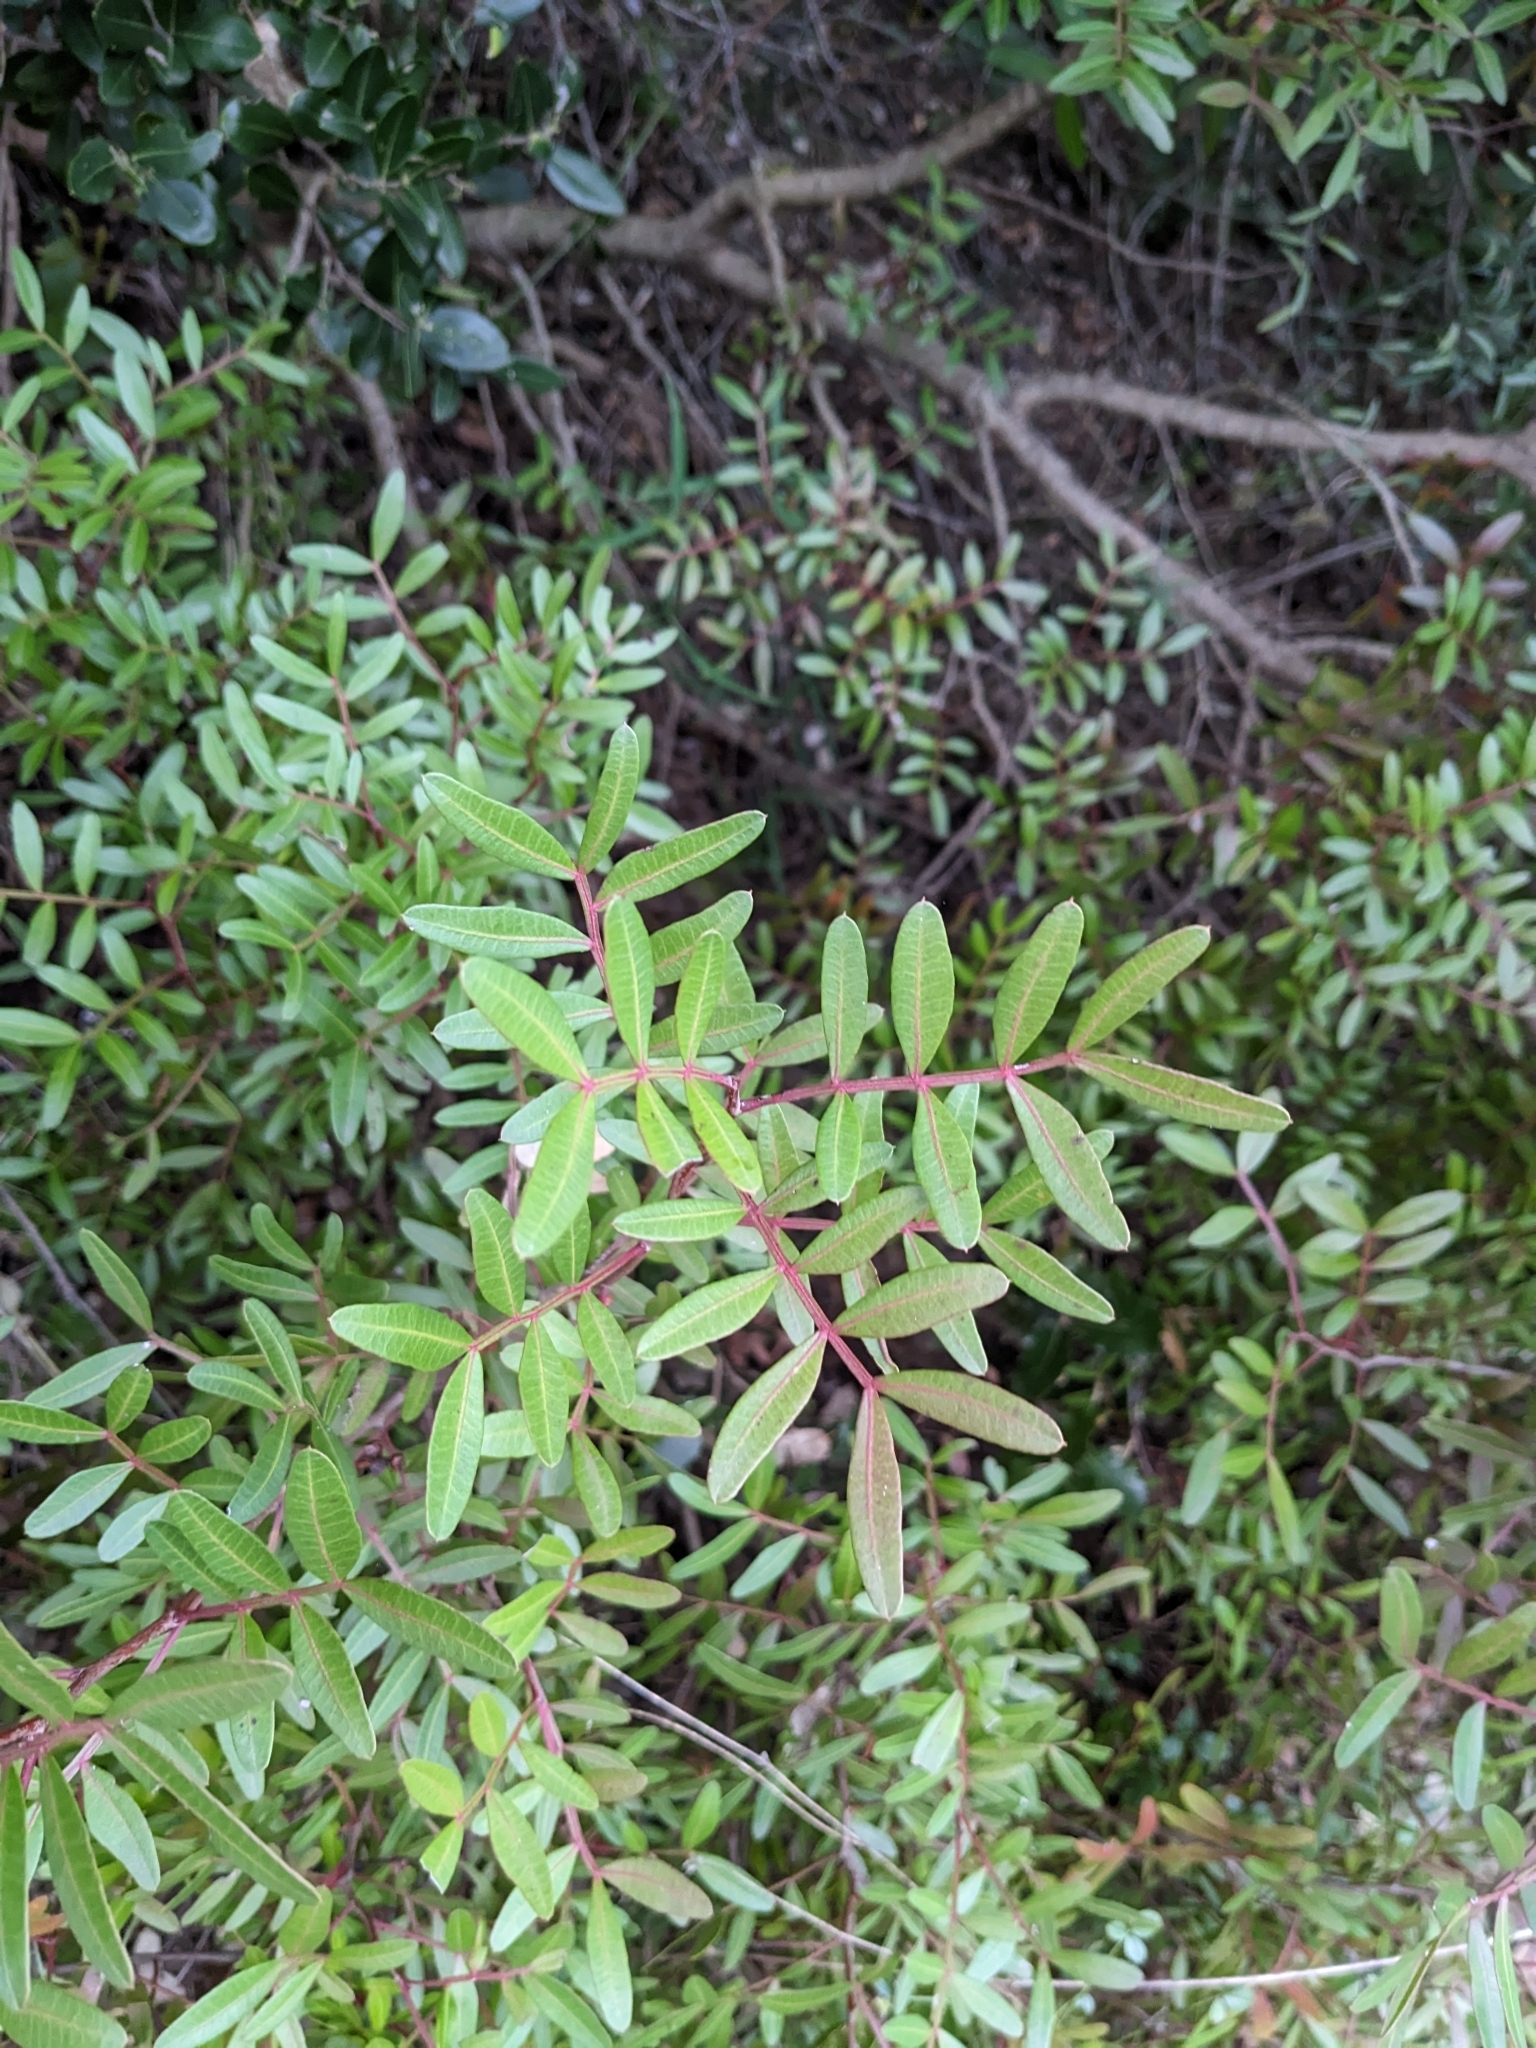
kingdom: Plantae
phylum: Tracheophyta
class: Magnoliopsida
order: Sapindales
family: Anacardiaceae
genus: Pistacia
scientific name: Pistacia lentiscus
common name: Lentisk
